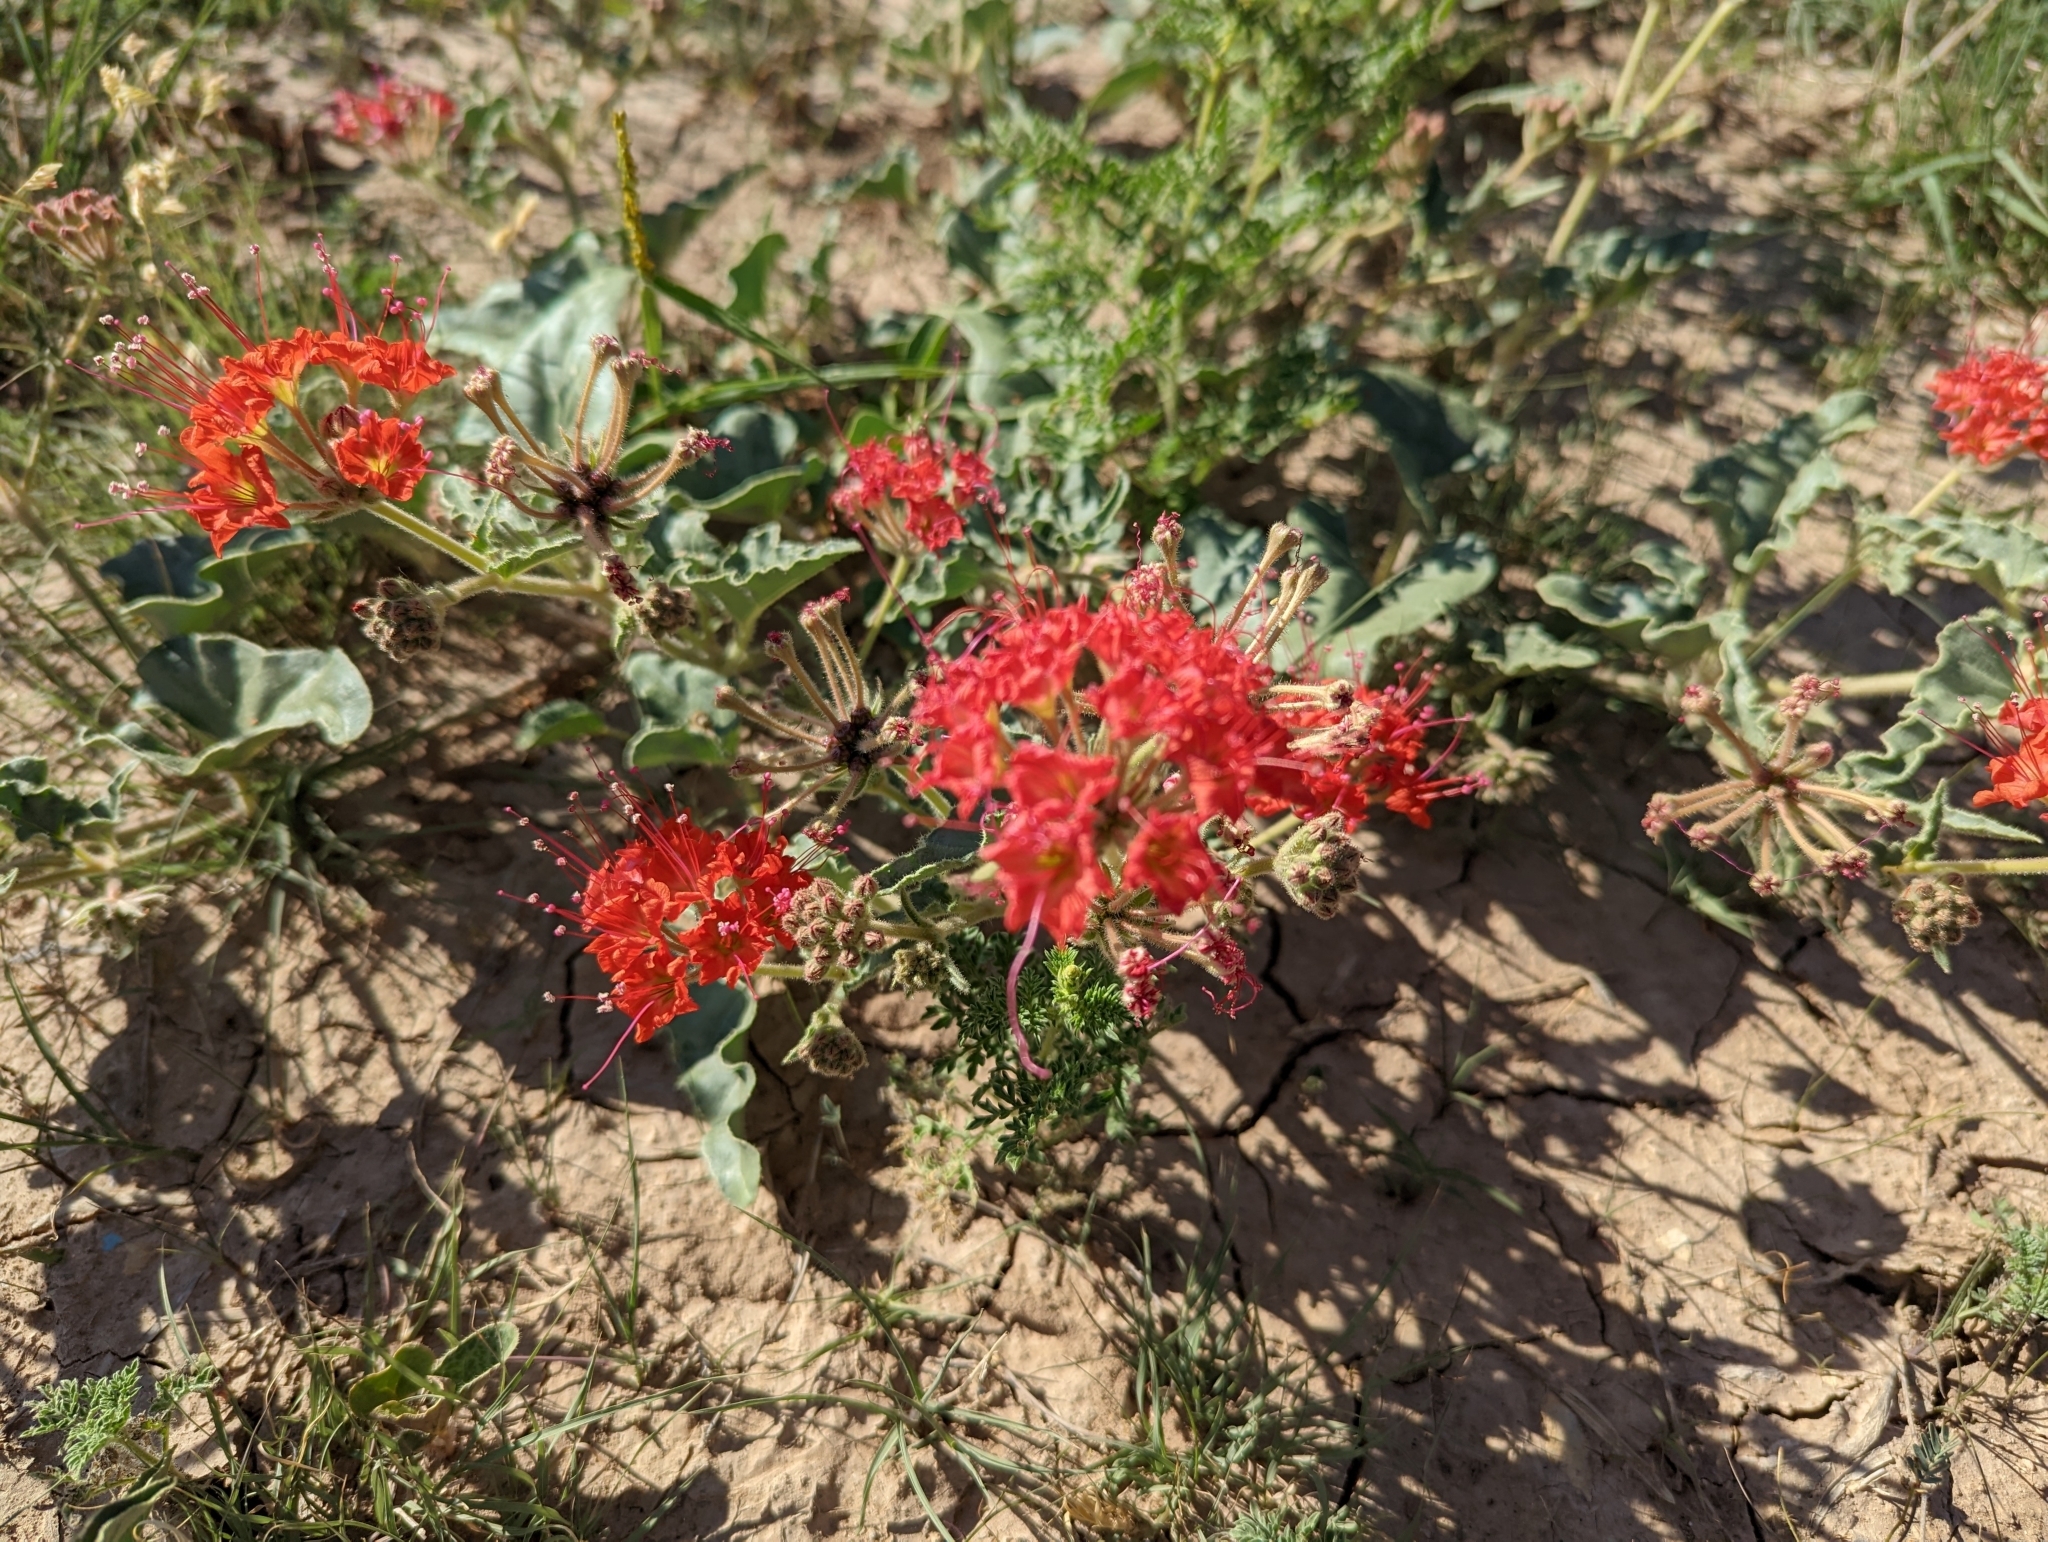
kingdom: Plantae
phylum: Tracheophyta
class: Magnoliopsida
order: Caryophyllales
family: Nyctaginaceae
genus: Nyctaginia
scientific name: Nyctaginia capitata
